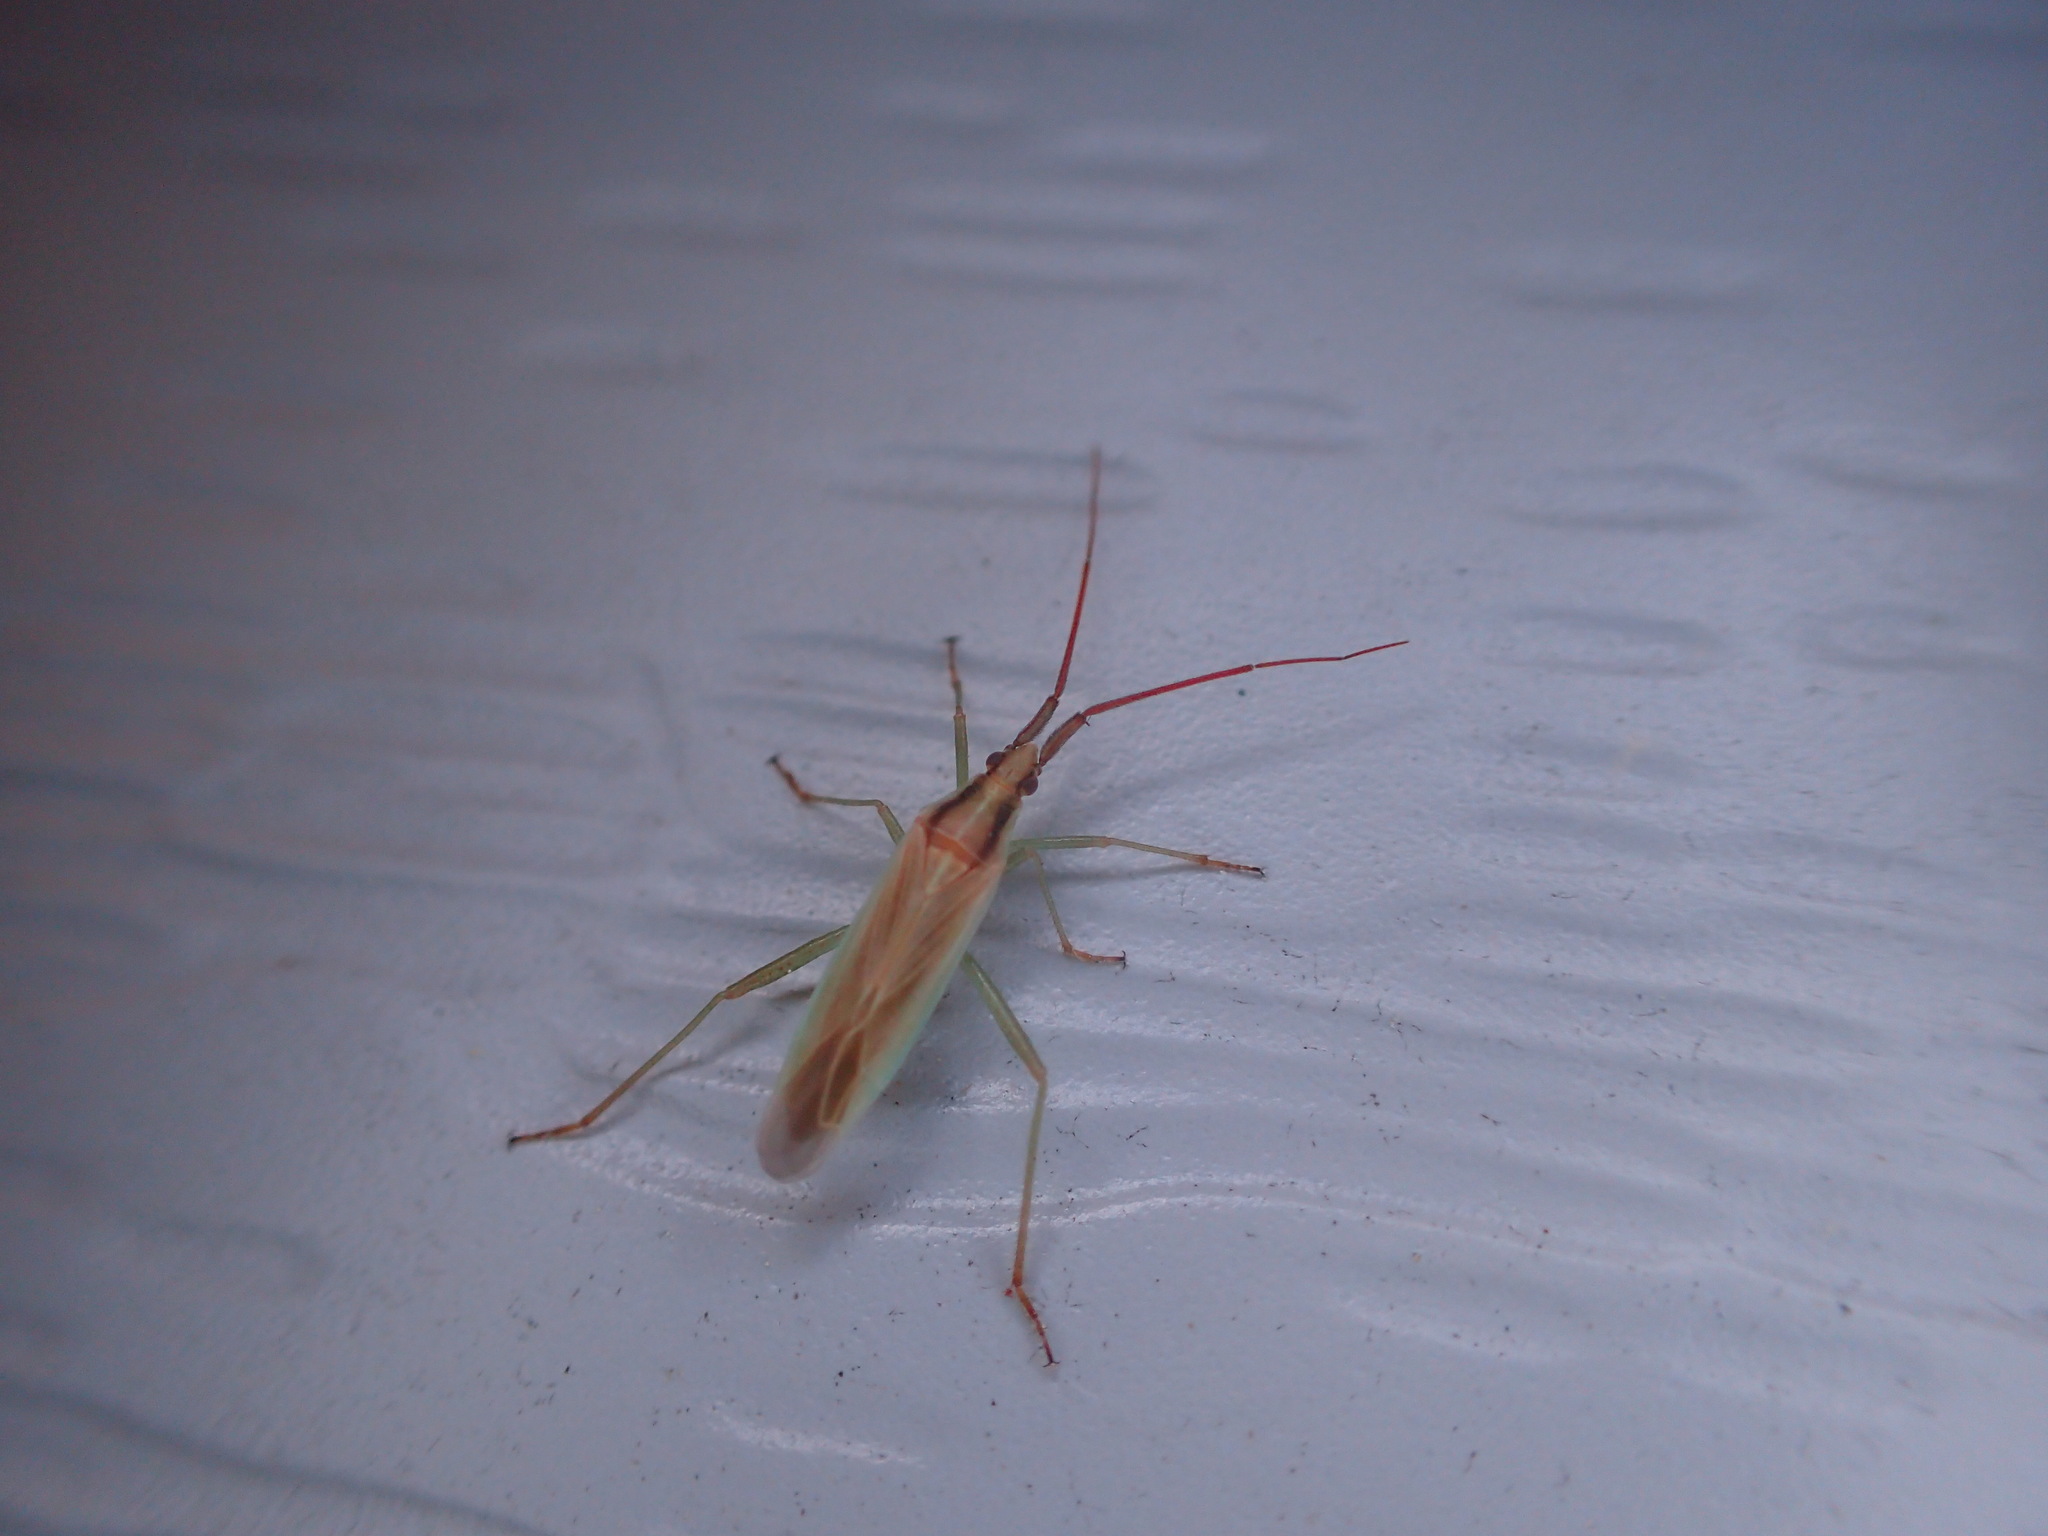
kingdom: Animalia
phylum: Arthropoda
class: Insecta
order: Hemiptera
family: Miridae
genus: Stenodema
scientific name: Stenodema vicinum
